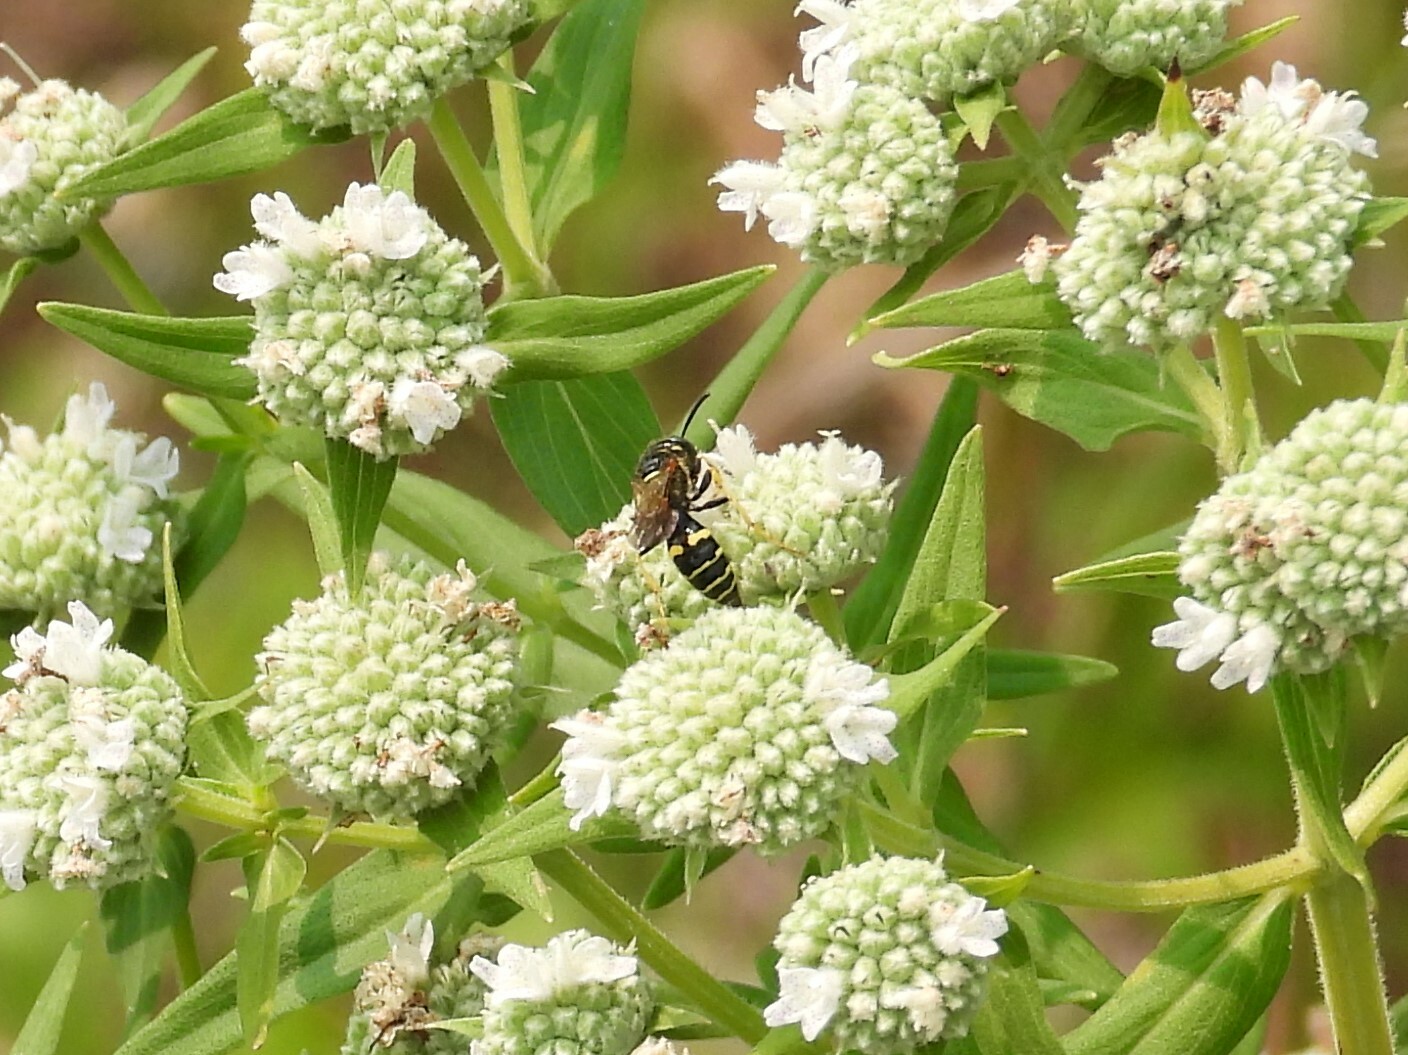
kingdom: Animalia
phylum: Arthropoda
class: Insecta
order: Hymenoptera
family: Crabronidae
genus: Philanthus
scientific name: Philanthus bilunatus
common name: Two moons beewolf
